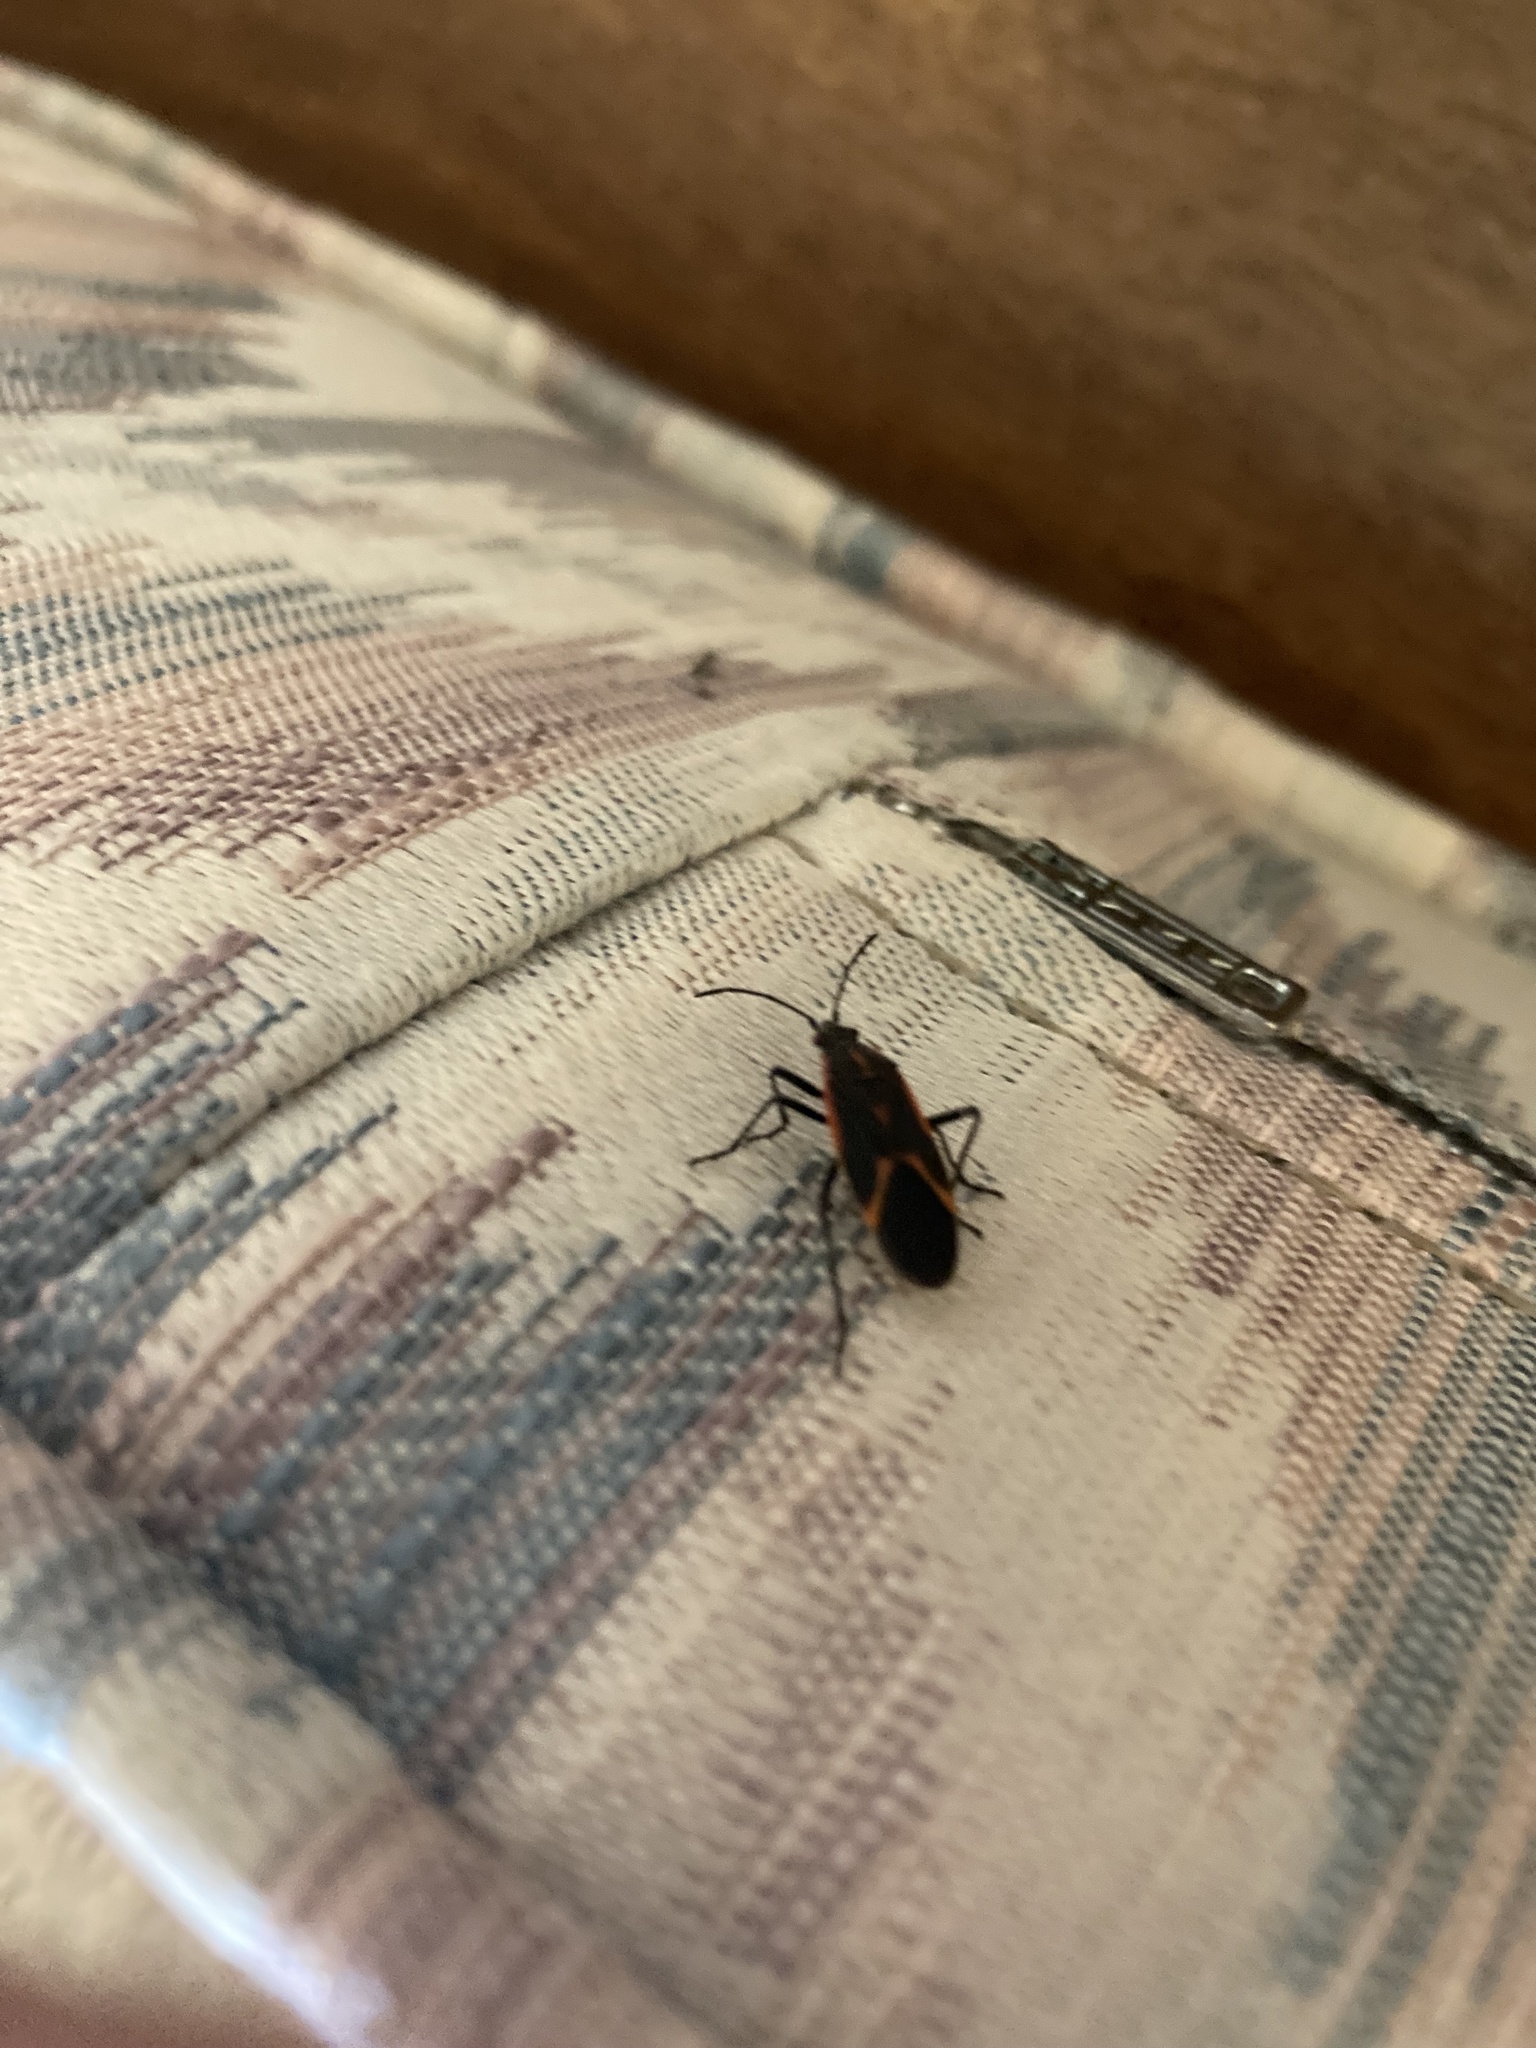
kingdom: Animalia
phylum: Arthropoda
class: Insecta
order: Hemiptera
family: Rhopalidae
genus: Boisea
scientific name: Boisea trivittata
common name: Boxelder bug
